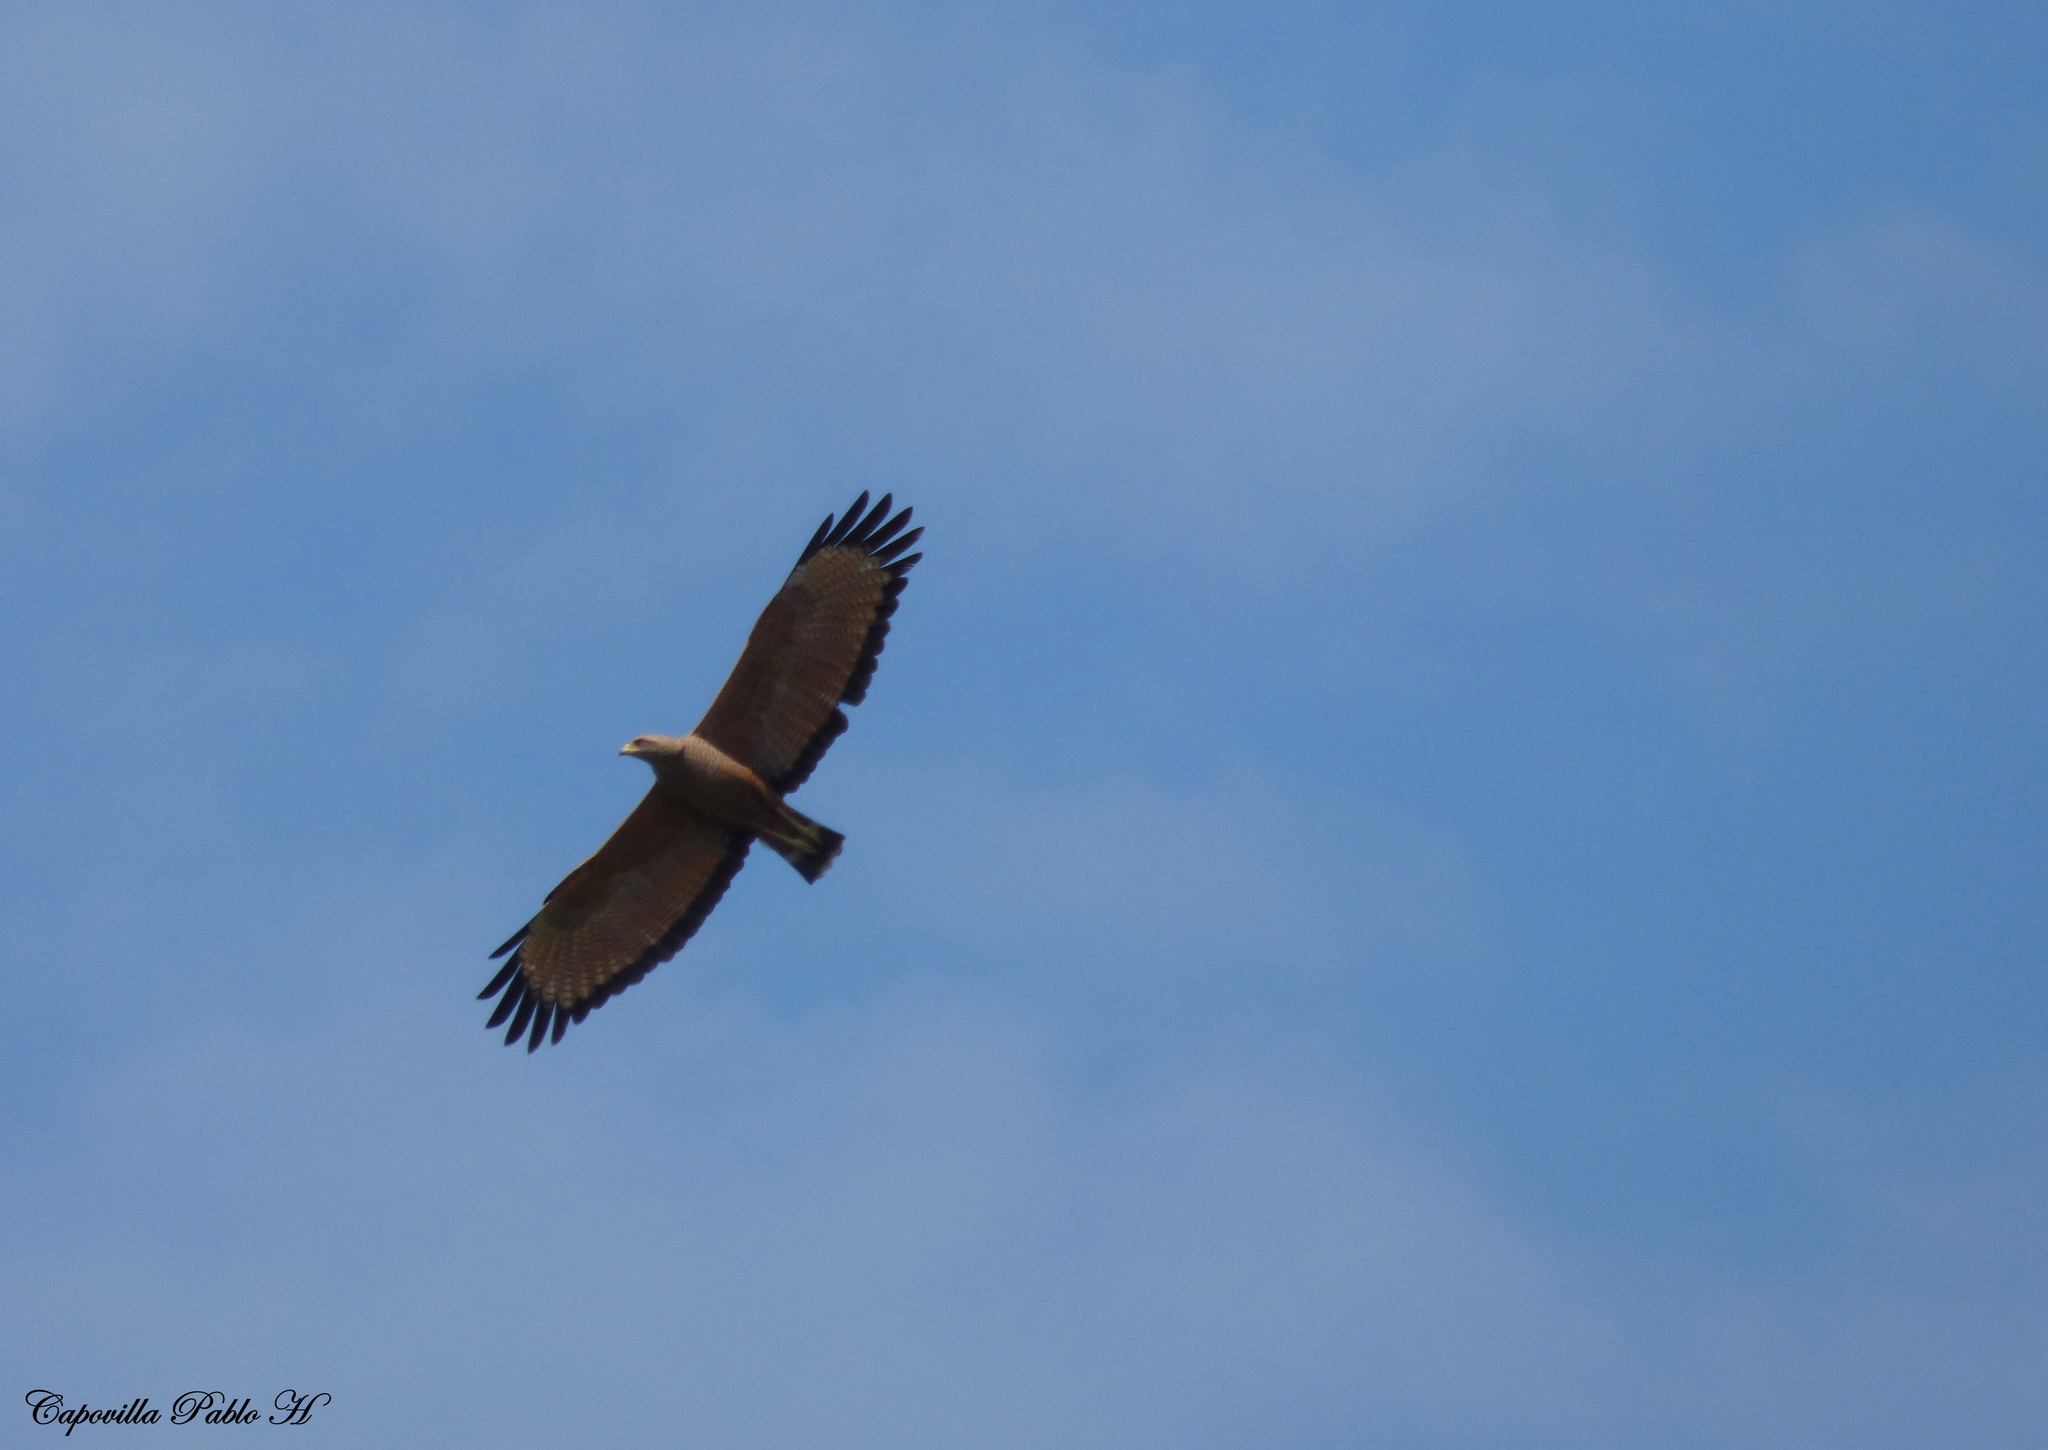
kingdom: Animalia
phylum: Chordata
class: Aves
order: Accipitriformes
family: Accipitridae
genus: Buteogallus
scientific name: Buteogallus meridionalis
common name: Savanna hawk
